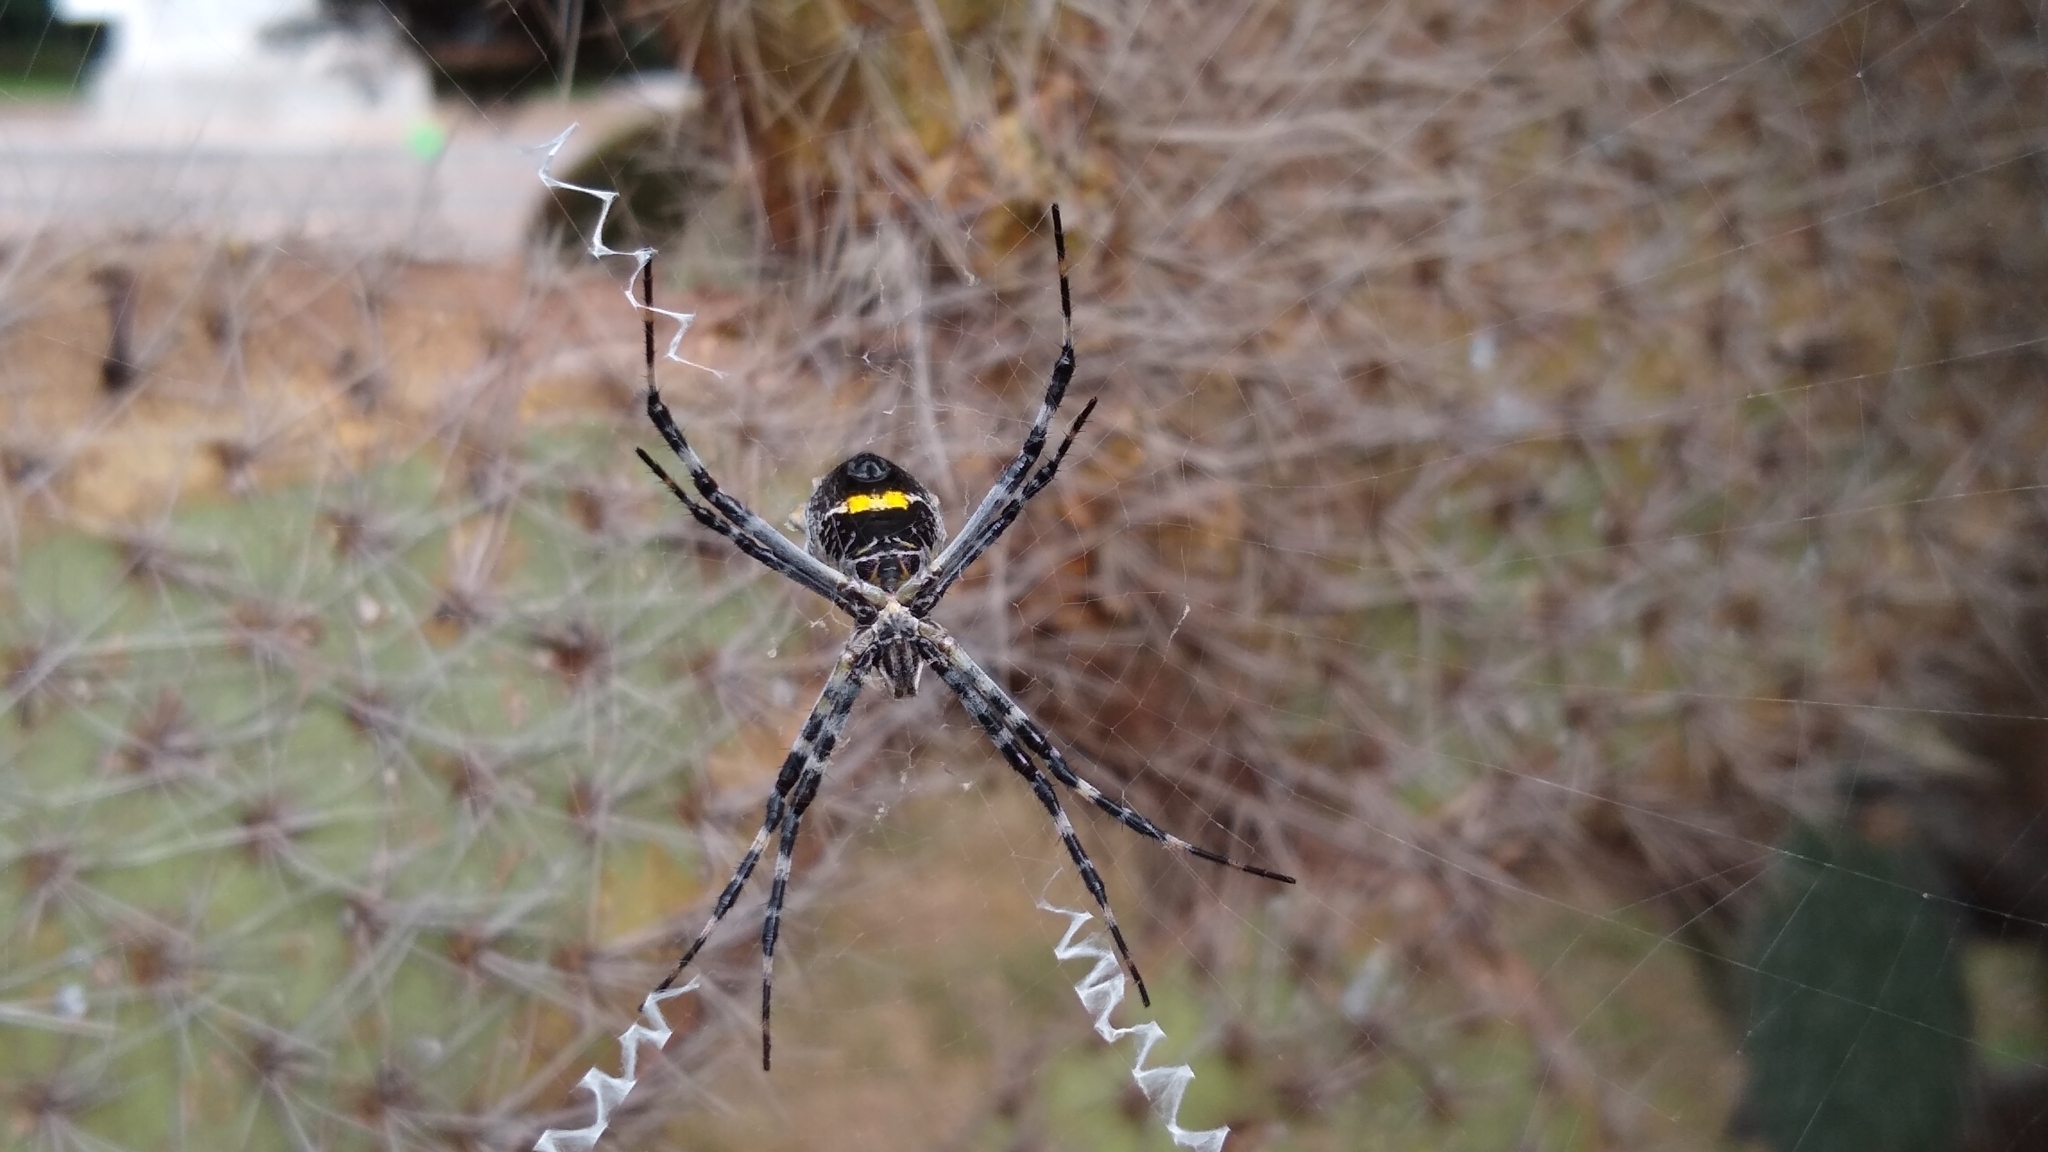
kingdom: Animalia
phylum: Arthropoda
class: Arachnida
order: Araneae
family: Araneidae
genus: Argiope
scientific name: Argiope argentata
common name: Orb weavers
